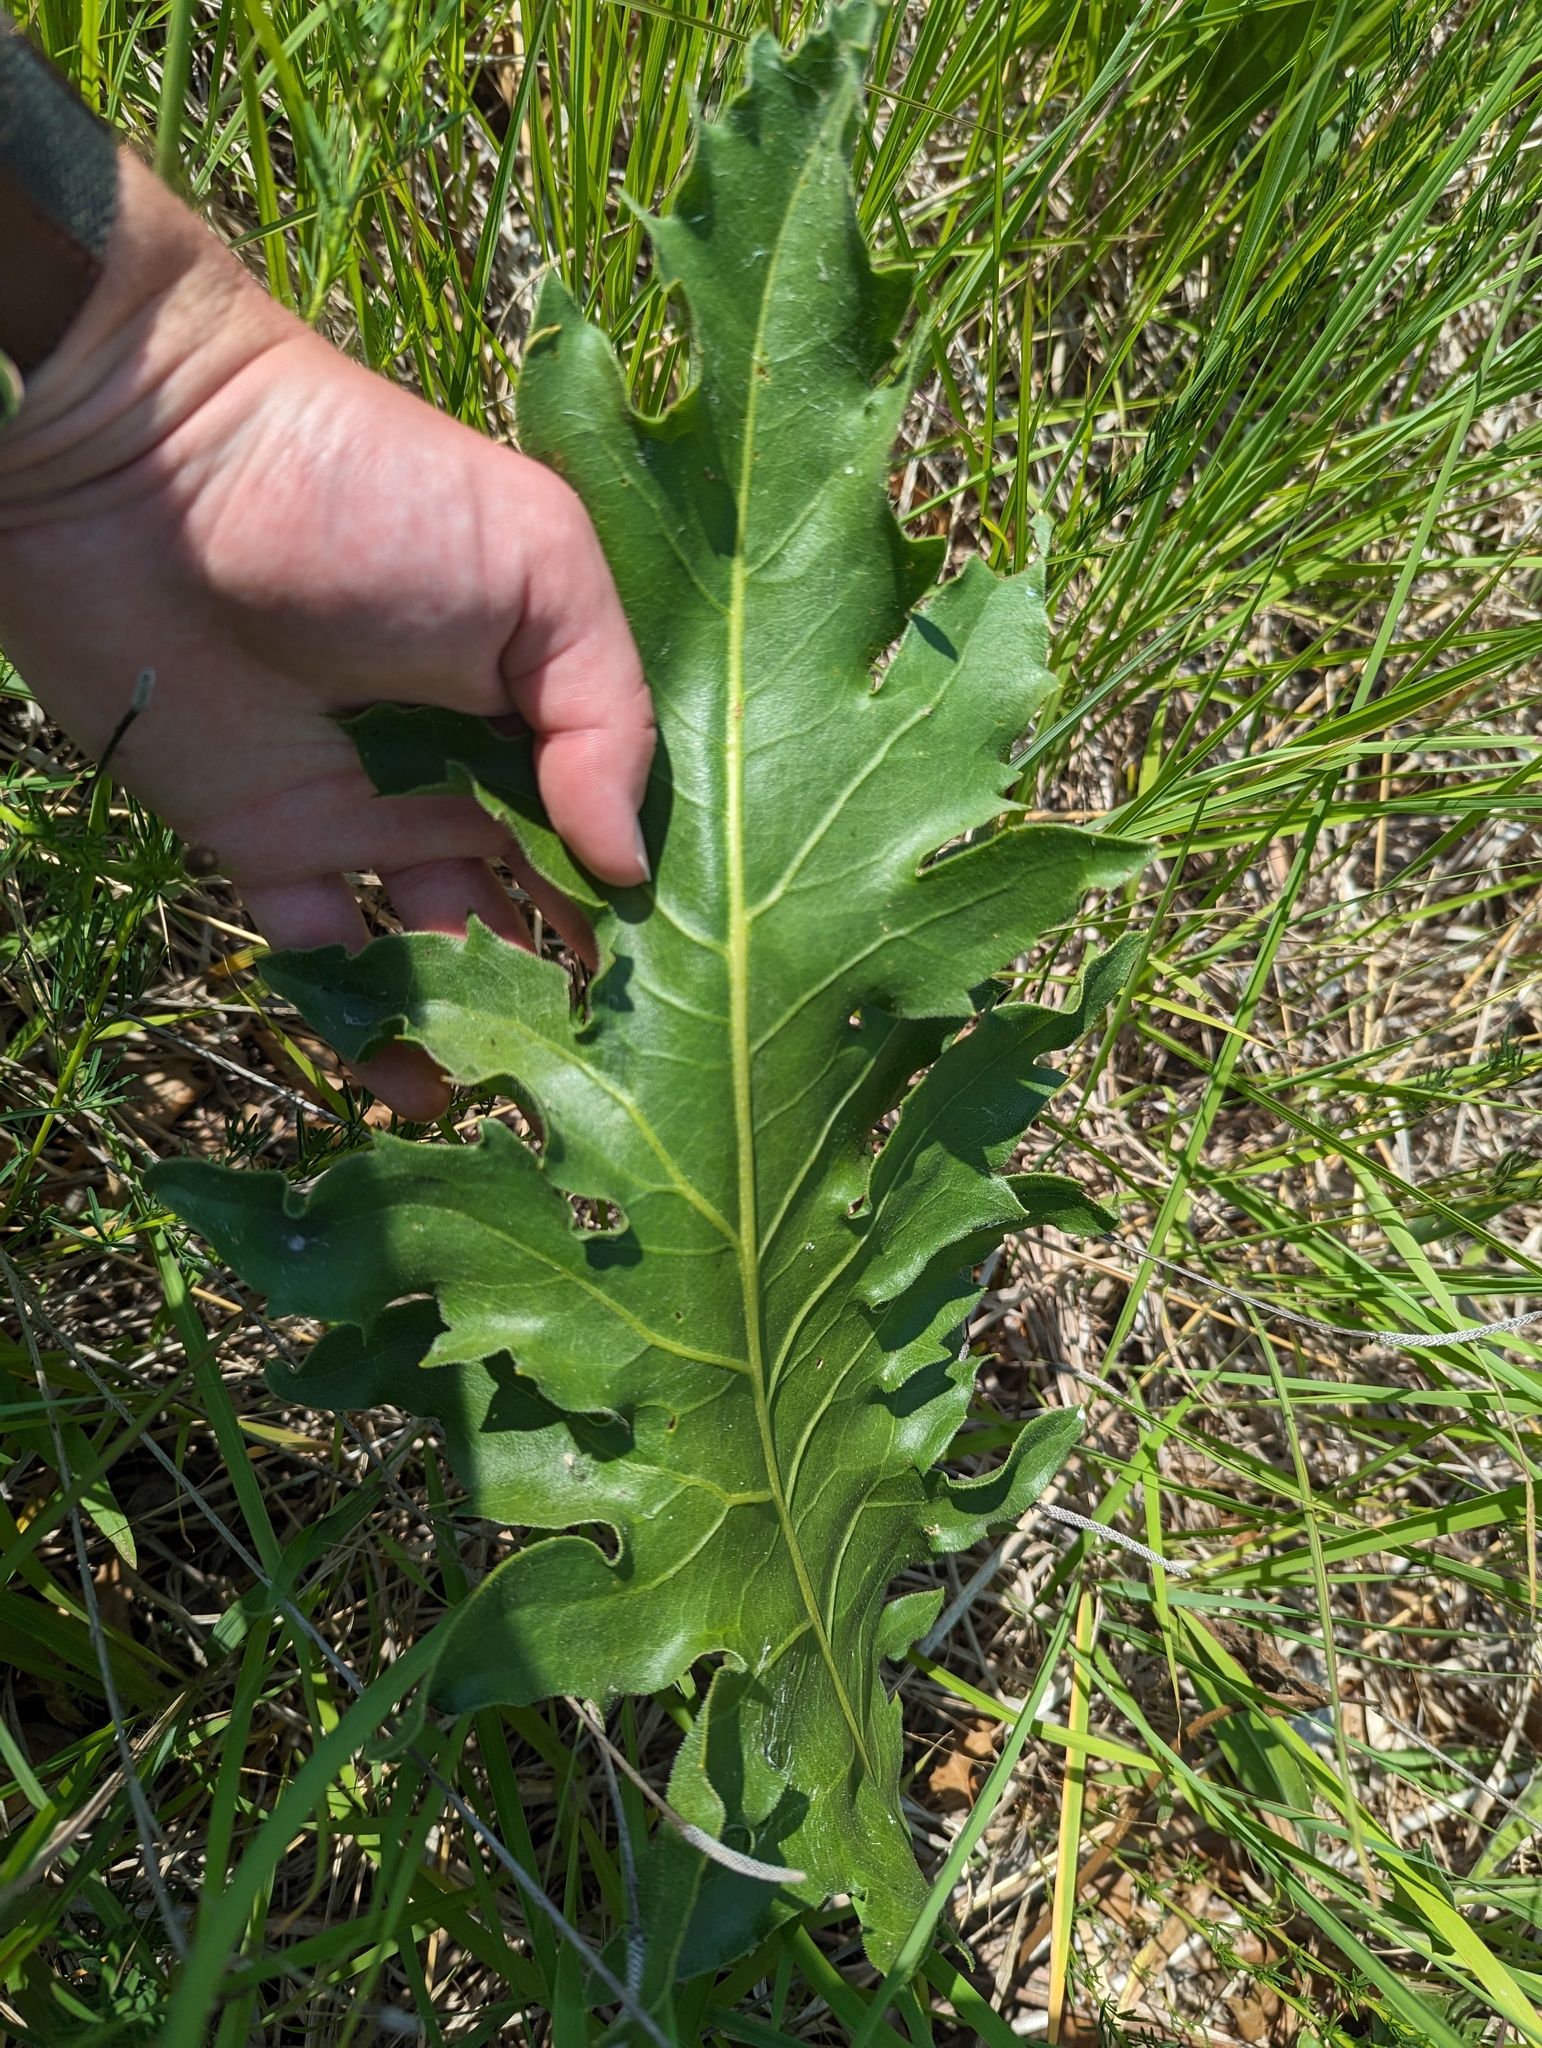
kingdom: Plantae
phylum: Tracheophyta
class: Magnoliopsida
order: Asterales
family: Asteraceae
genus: Silphium
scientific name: Silphium
